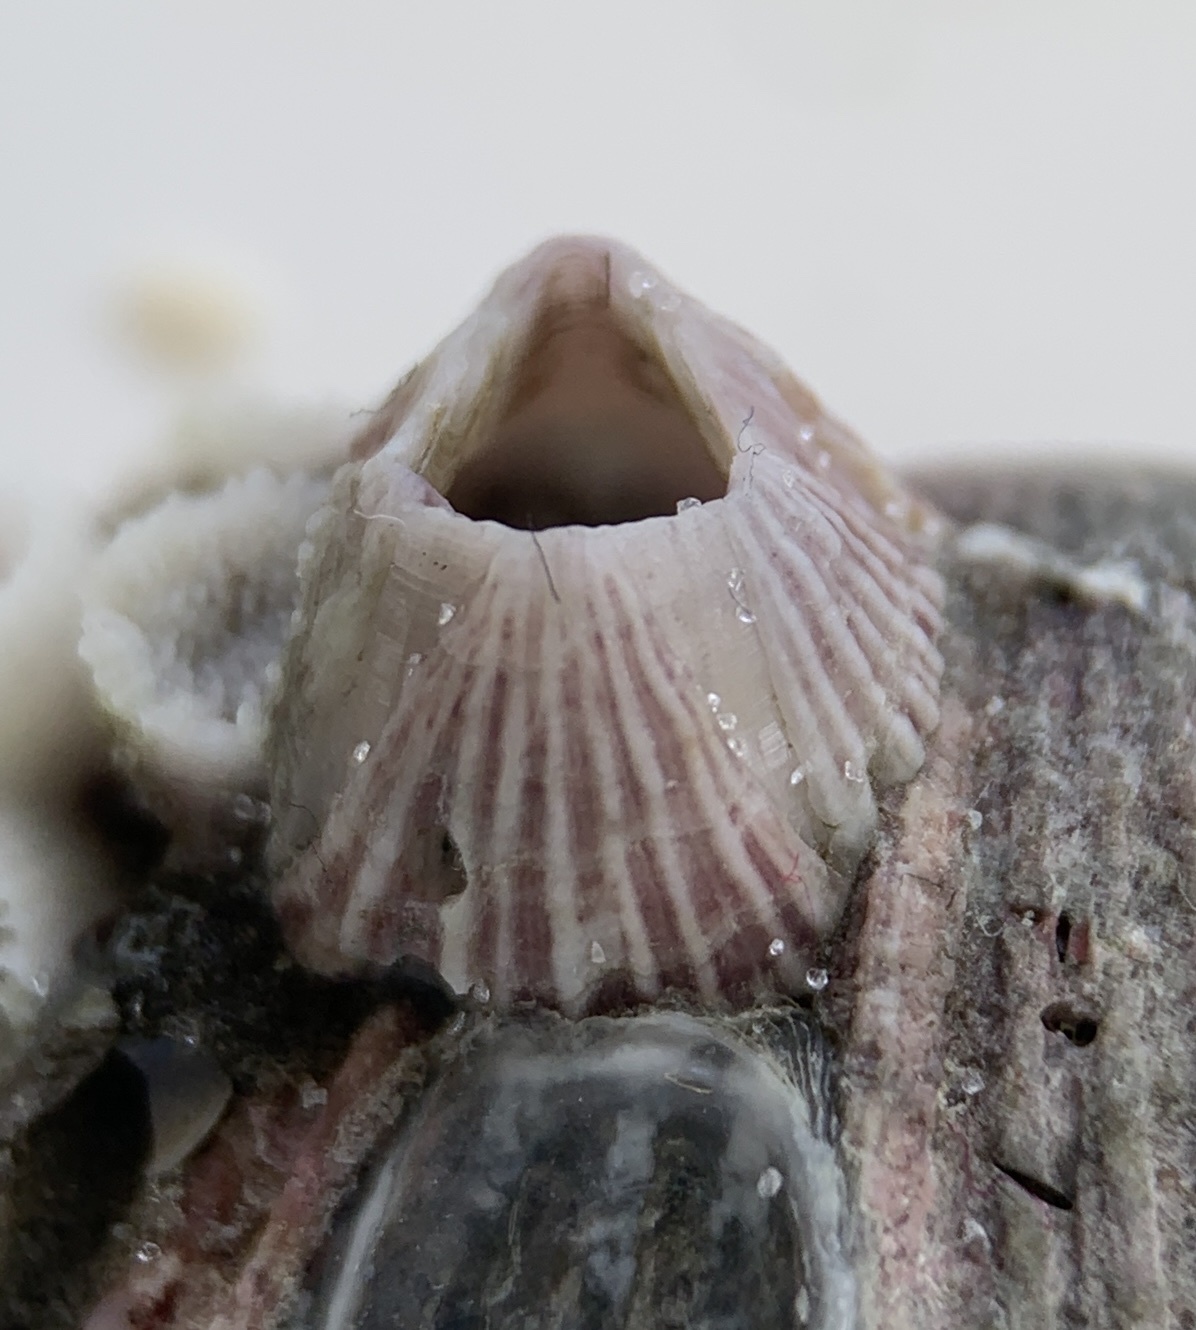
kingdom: Animalia
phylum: Arthropoda
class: Maxillopoda
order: Sessilia
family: Balanidae
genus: Balanus
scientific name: Balanus trigonus
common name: Triangle barnacle
